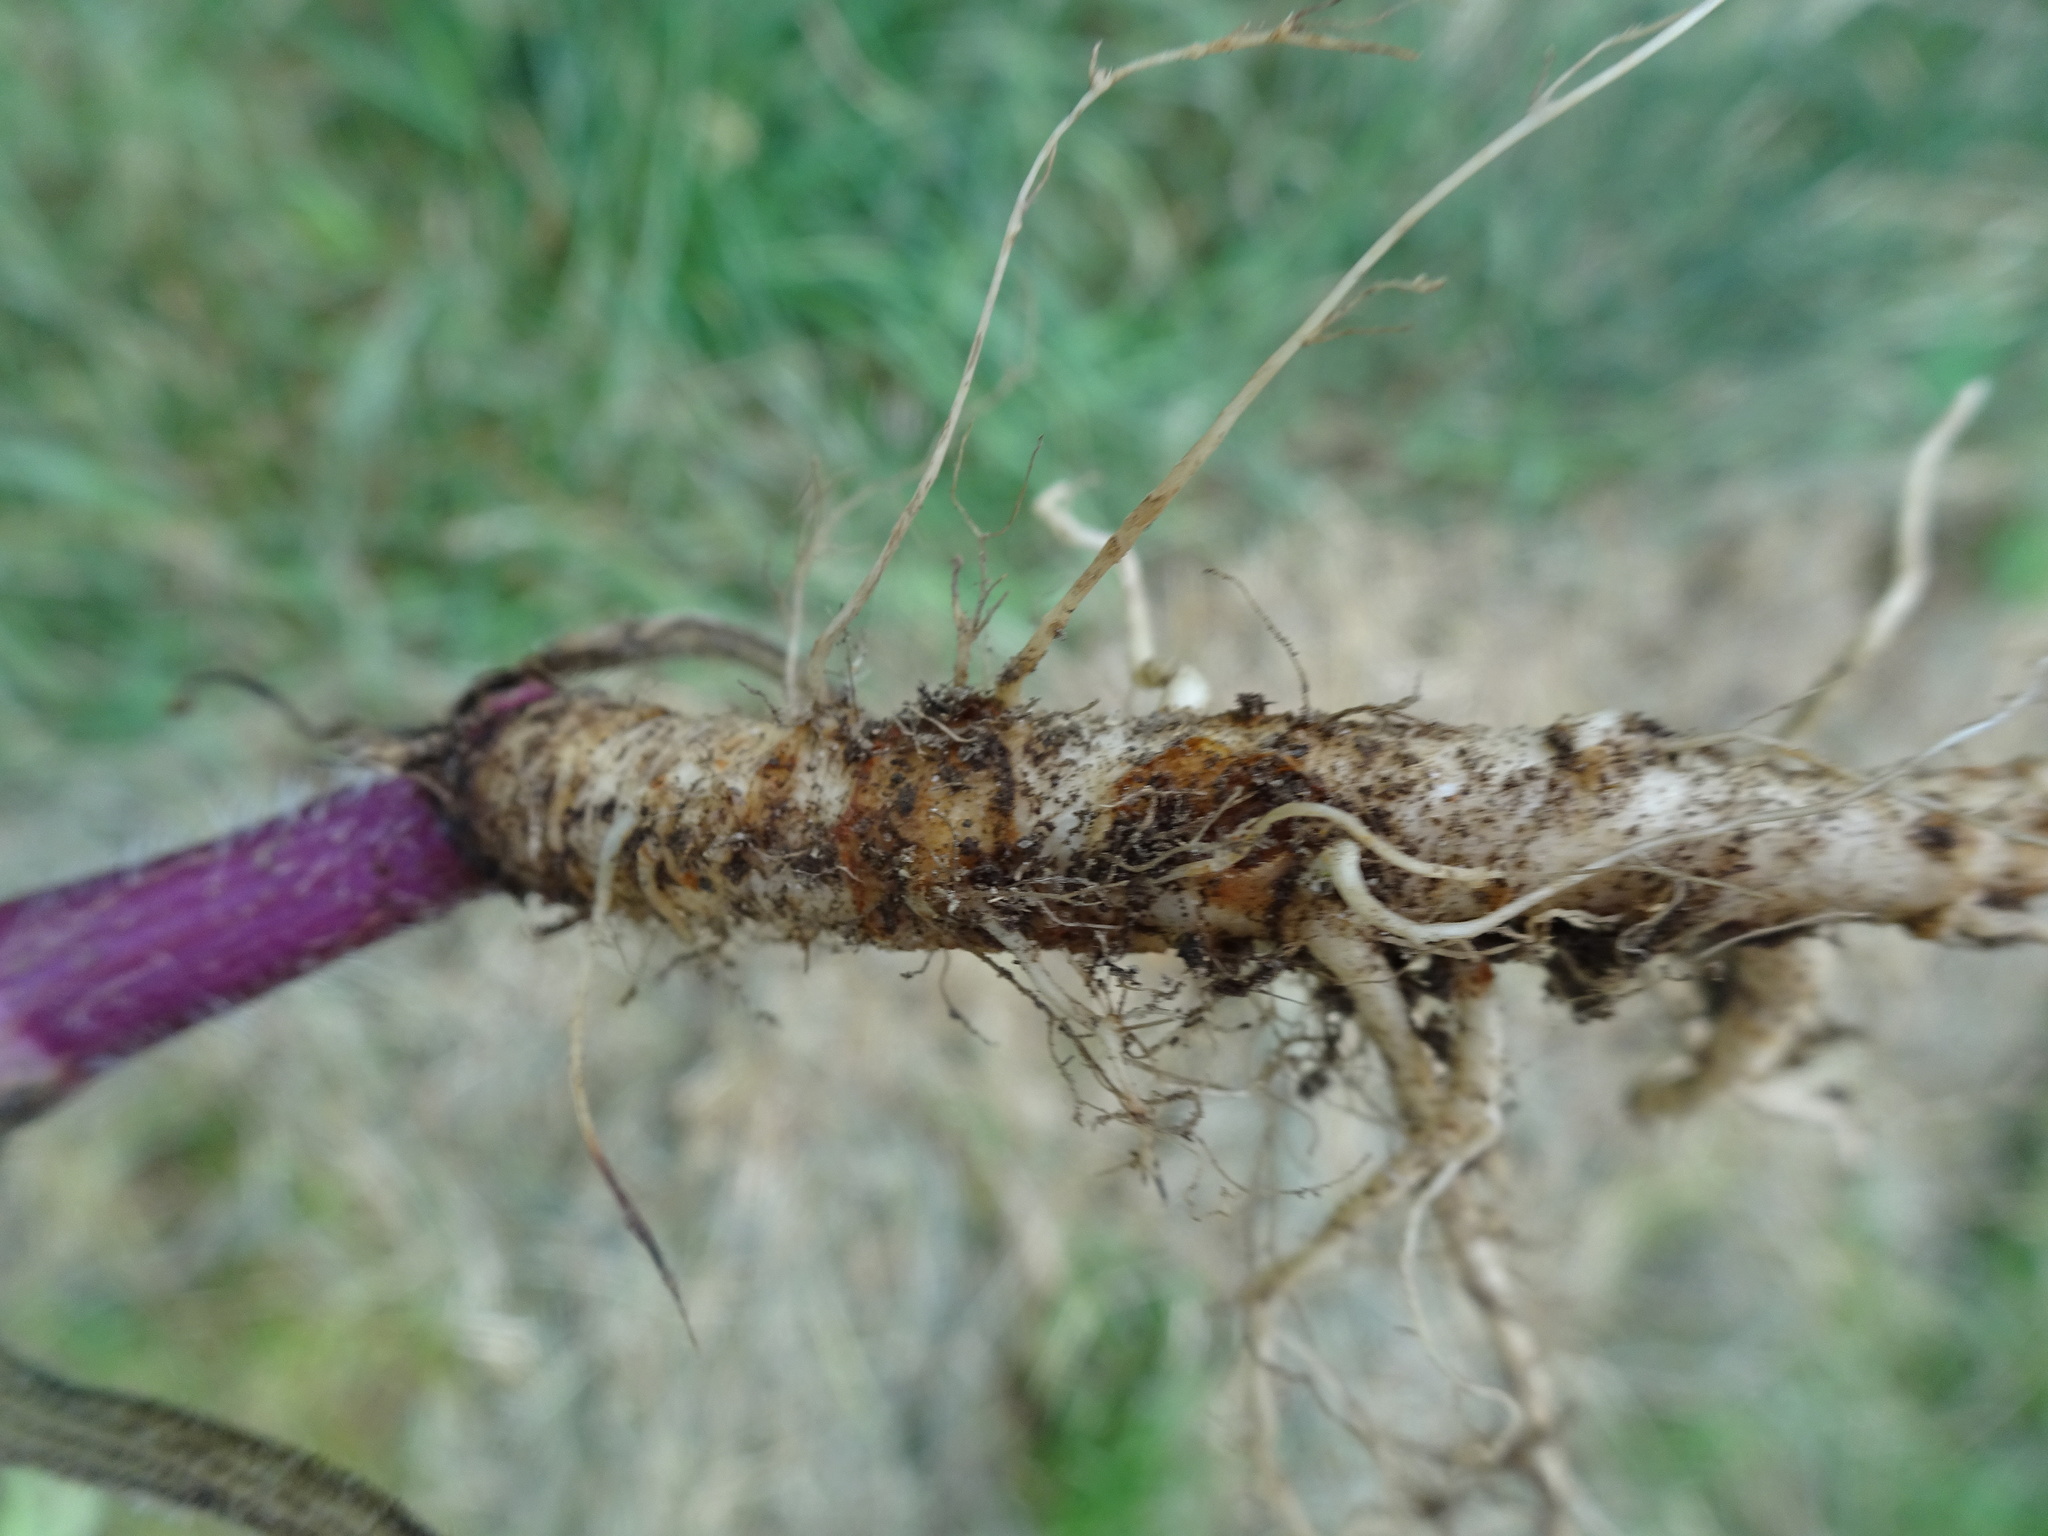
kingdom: Plantae
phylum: Tracheophyta
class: Magnoliopsida
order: Apiales
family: Apiaceae
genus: Chaerophyllum
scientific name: Chaerophyllum temulum
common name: Rough chervil
